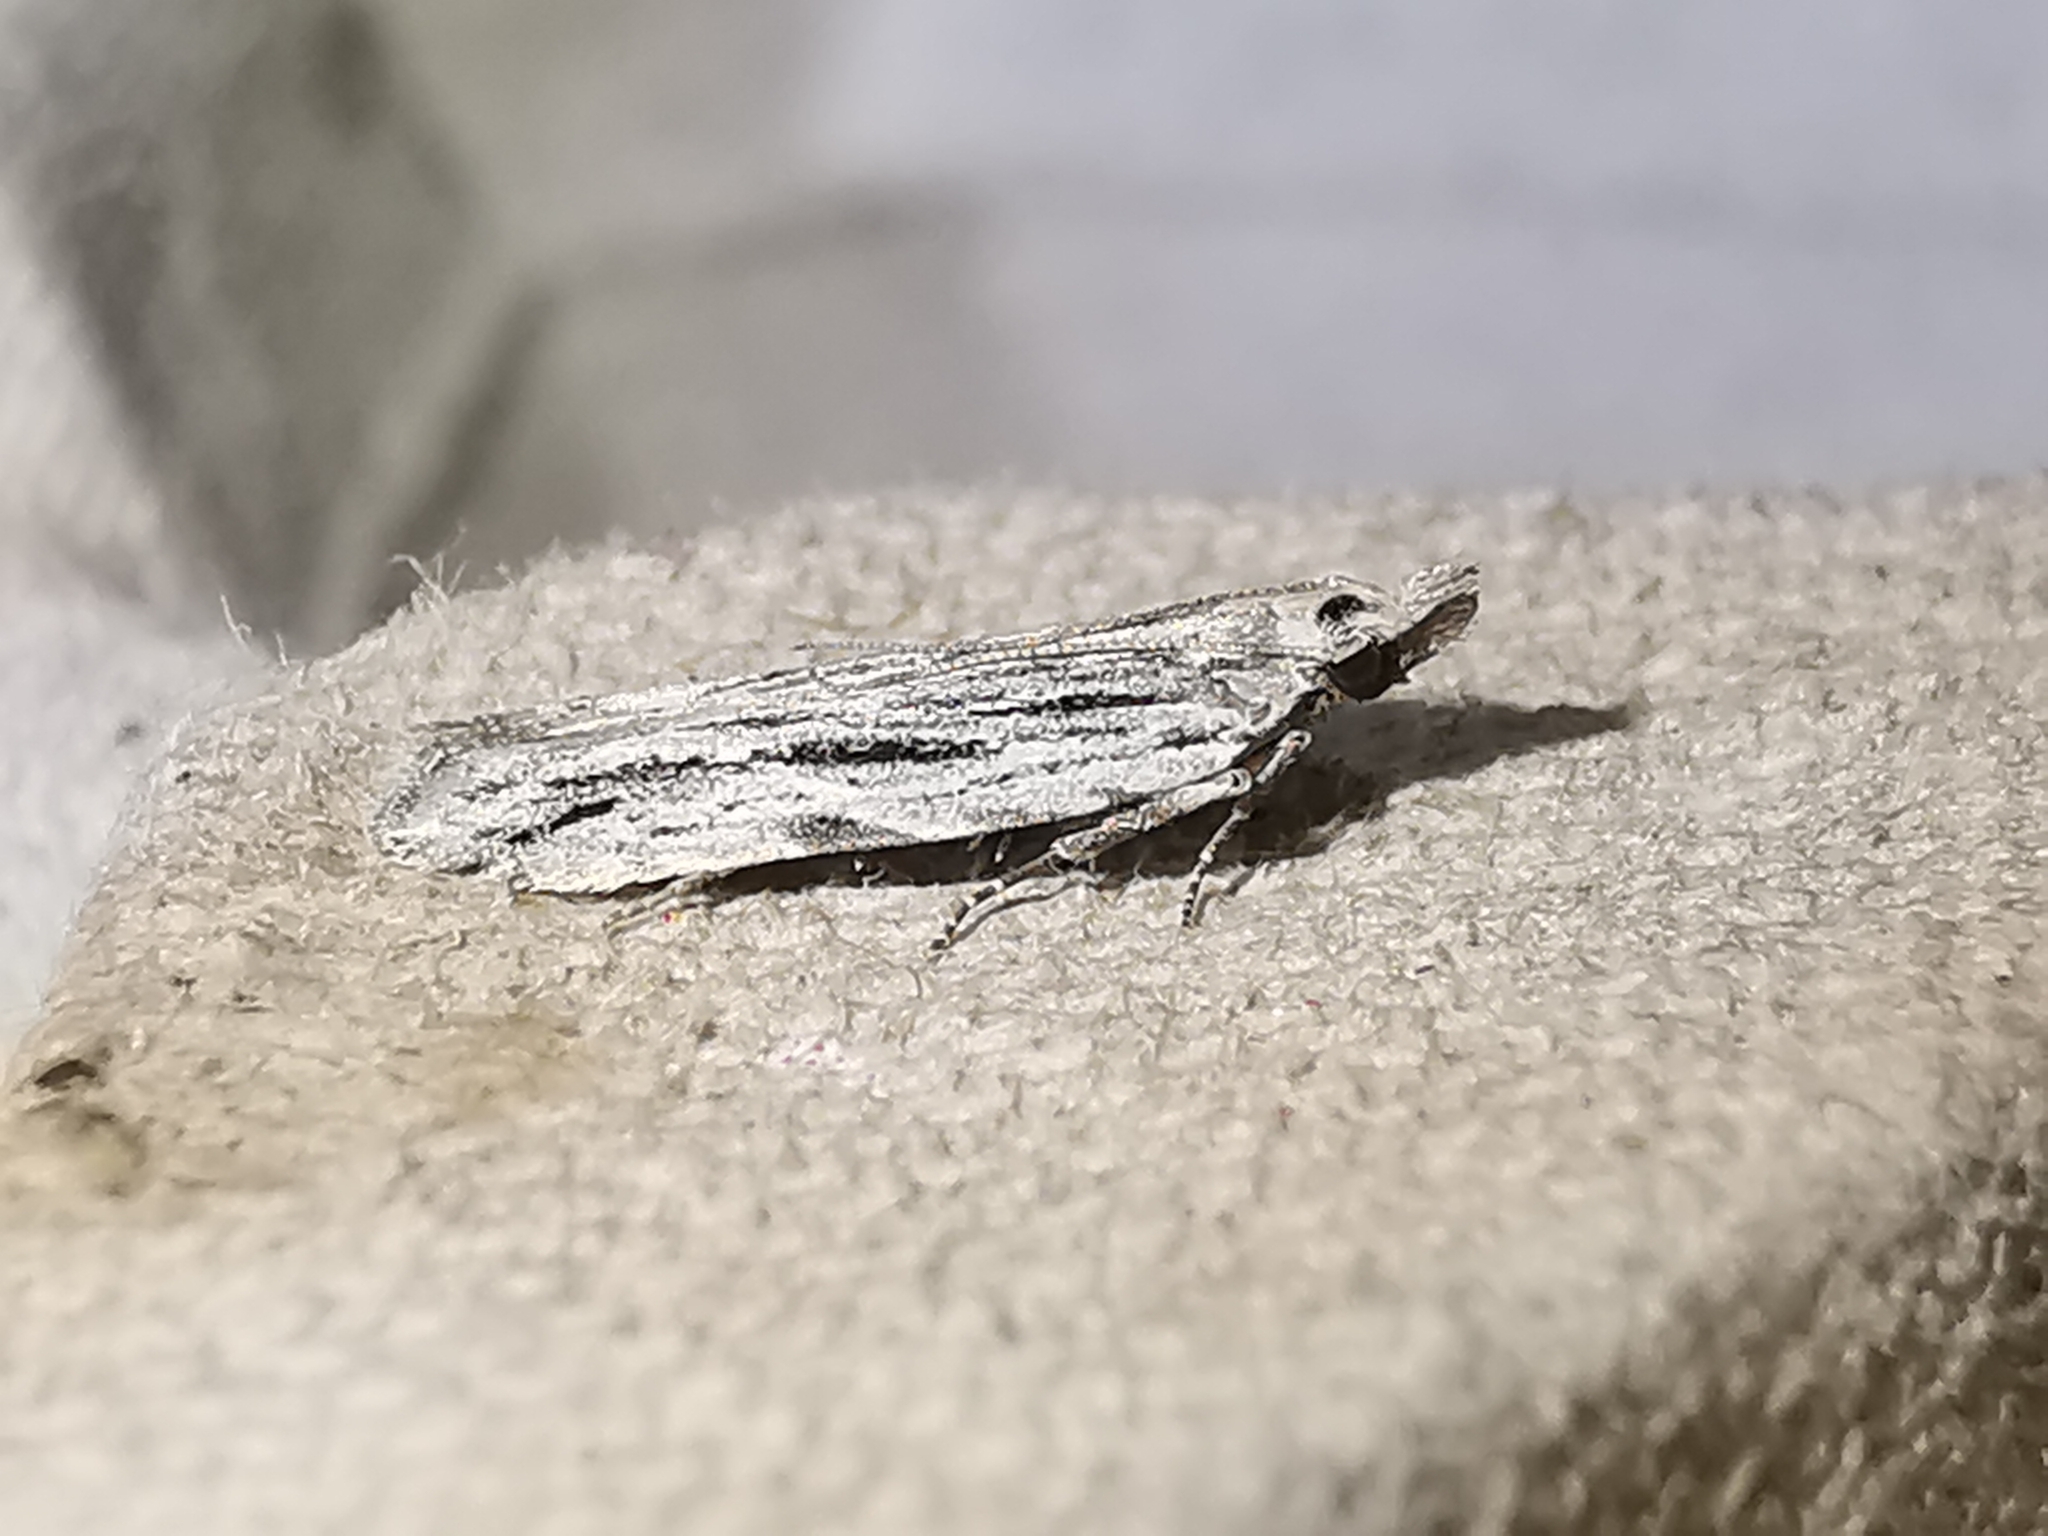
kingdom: Animalia
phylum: Arthropoda
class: Insecta
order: Lepidoptera
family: Gelechiidae
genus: Anarsia
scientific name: Anarsia innoxiella
